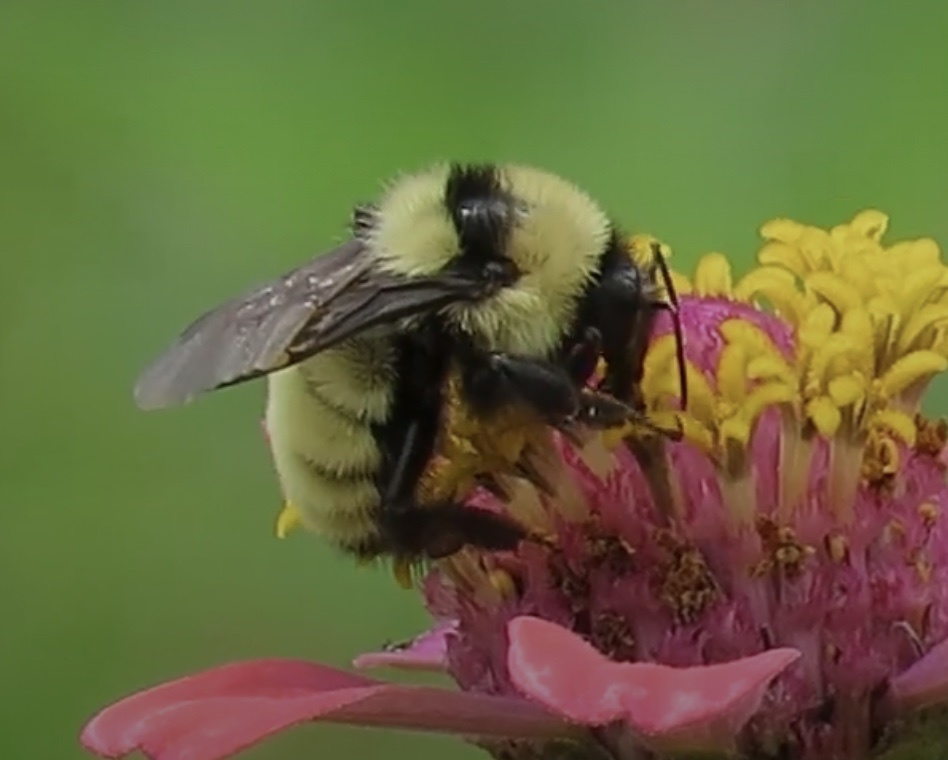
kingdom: Animalia
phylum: Arthropoda
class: Insecta
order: Hymenoptera
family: Apidae
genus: Bombus
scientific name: Bombus fervidus
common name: Yellow bumble bee
